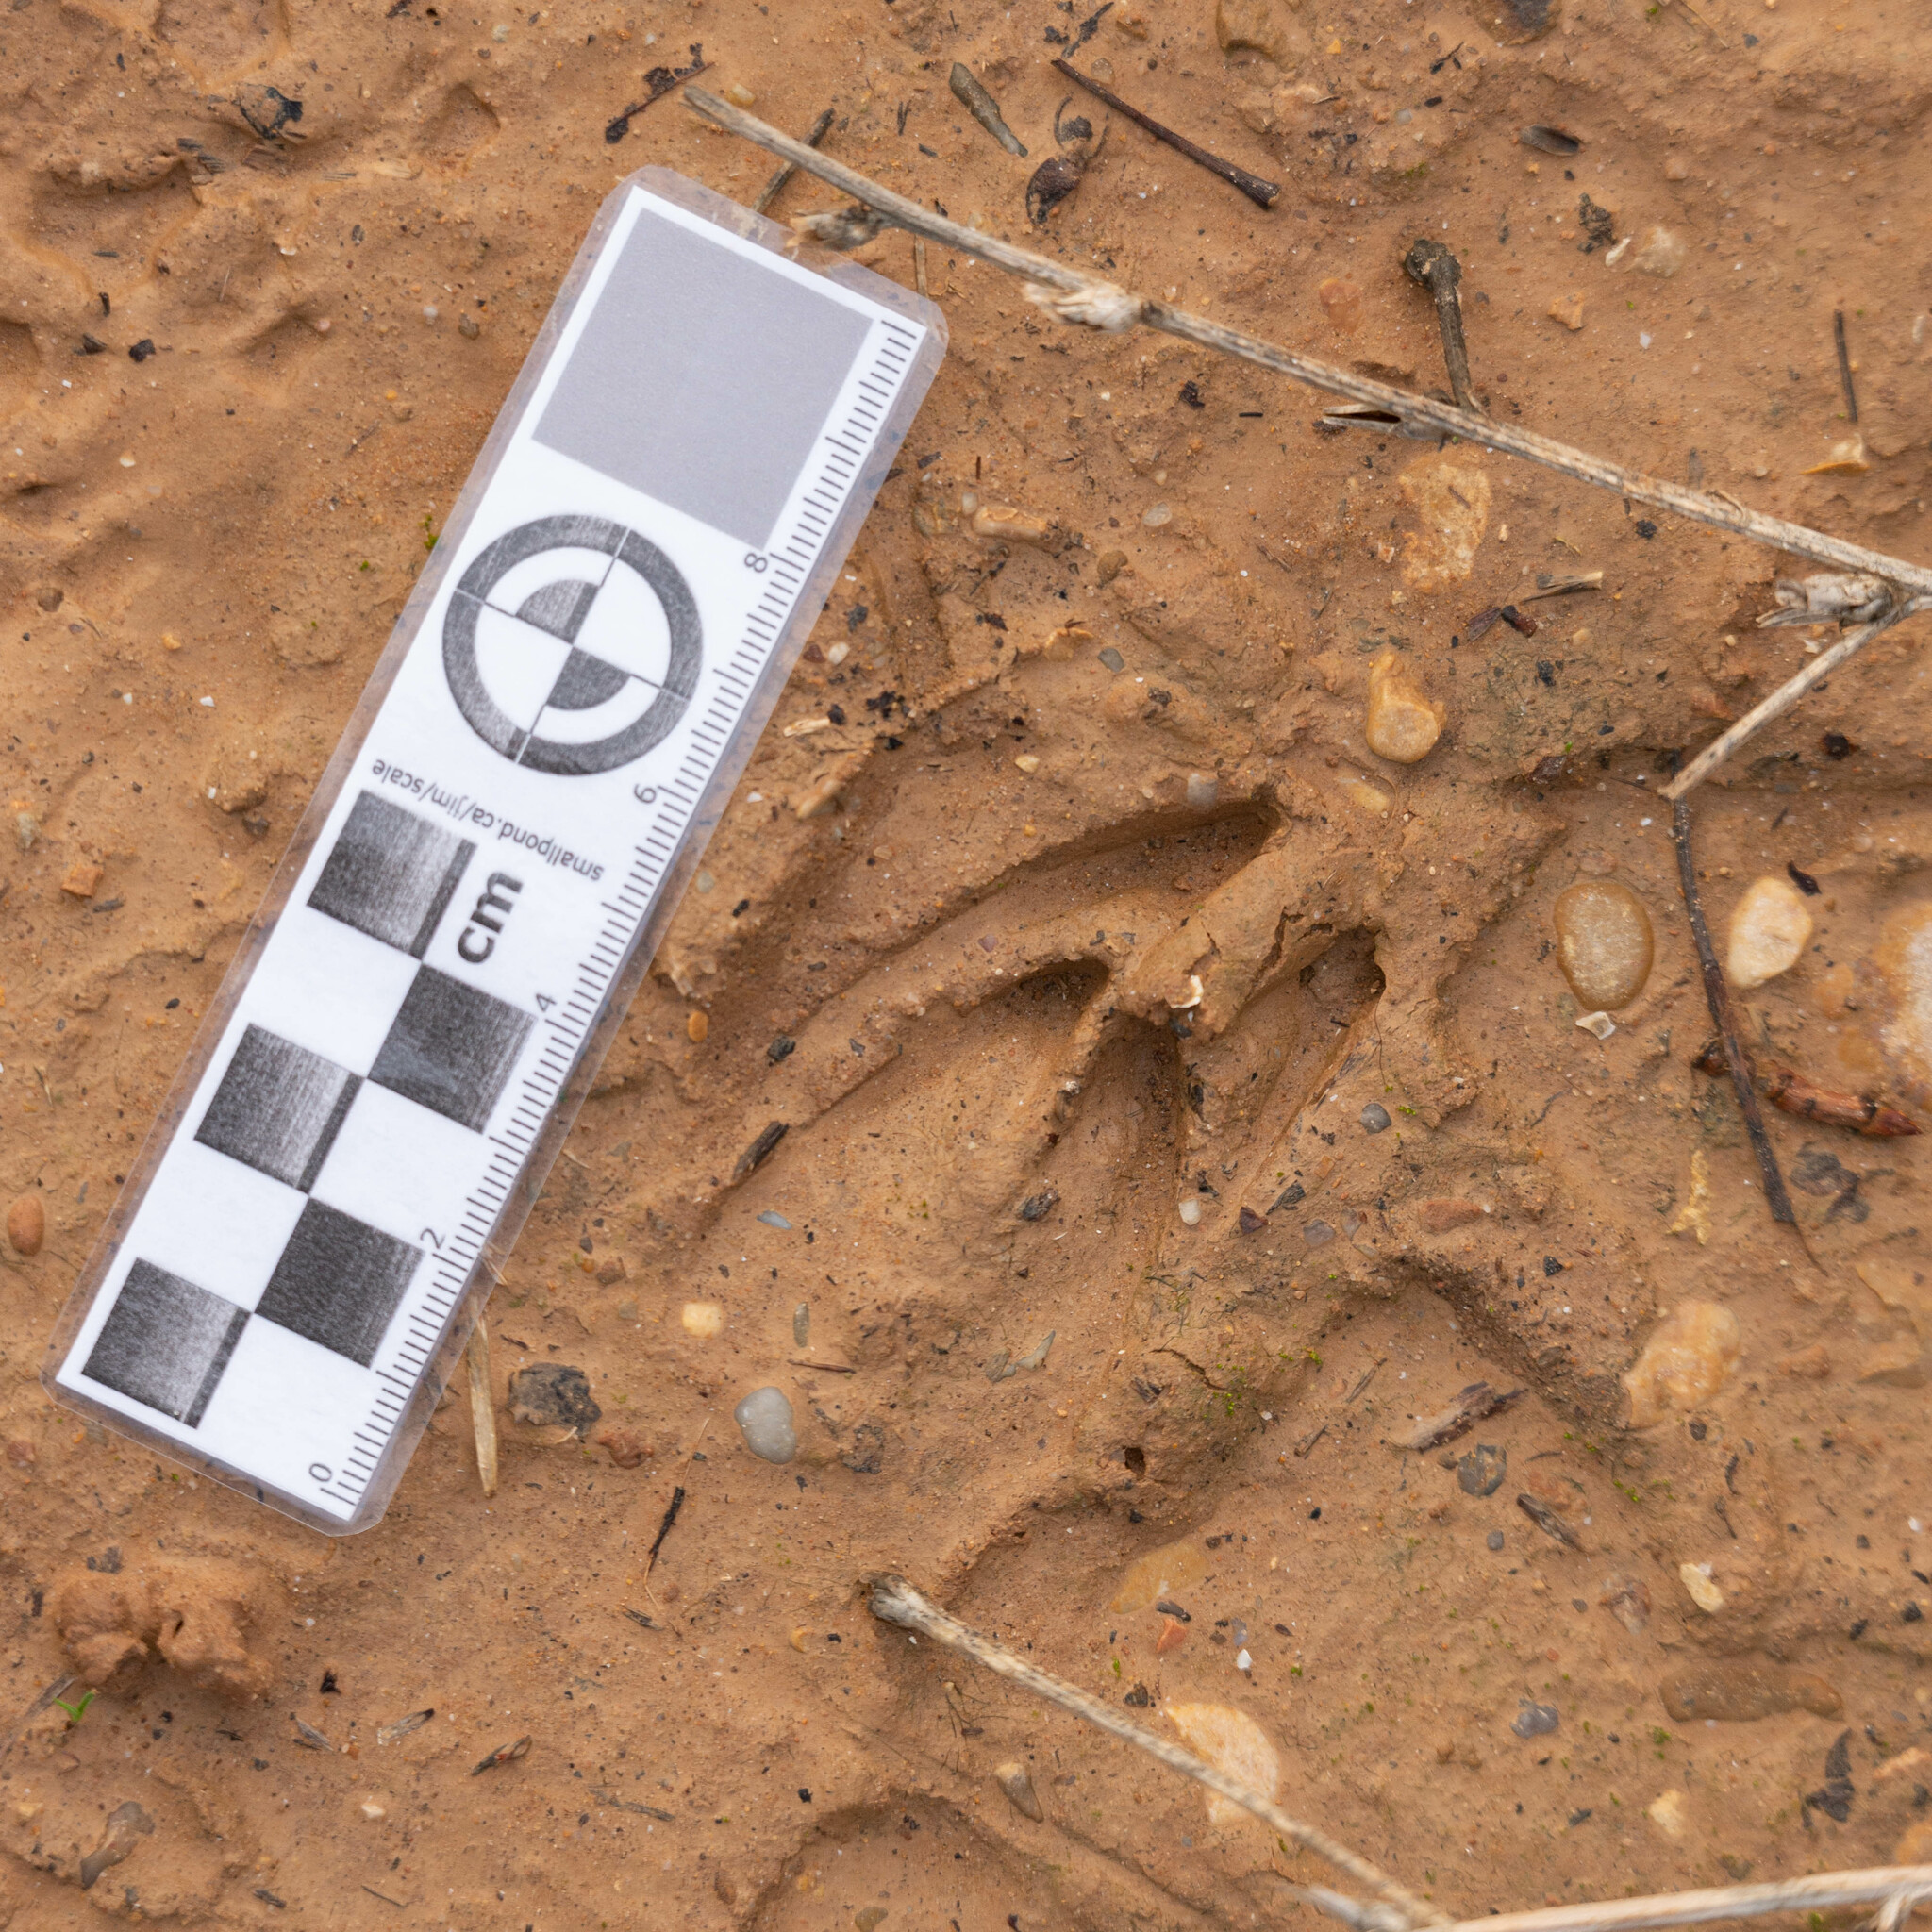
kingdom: Animalia
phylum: Chordata
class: Mammalia
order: Artiodactyla
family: Cervidae
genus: Capreolus
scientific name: Capreolus capreolus
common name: Western roe deer
